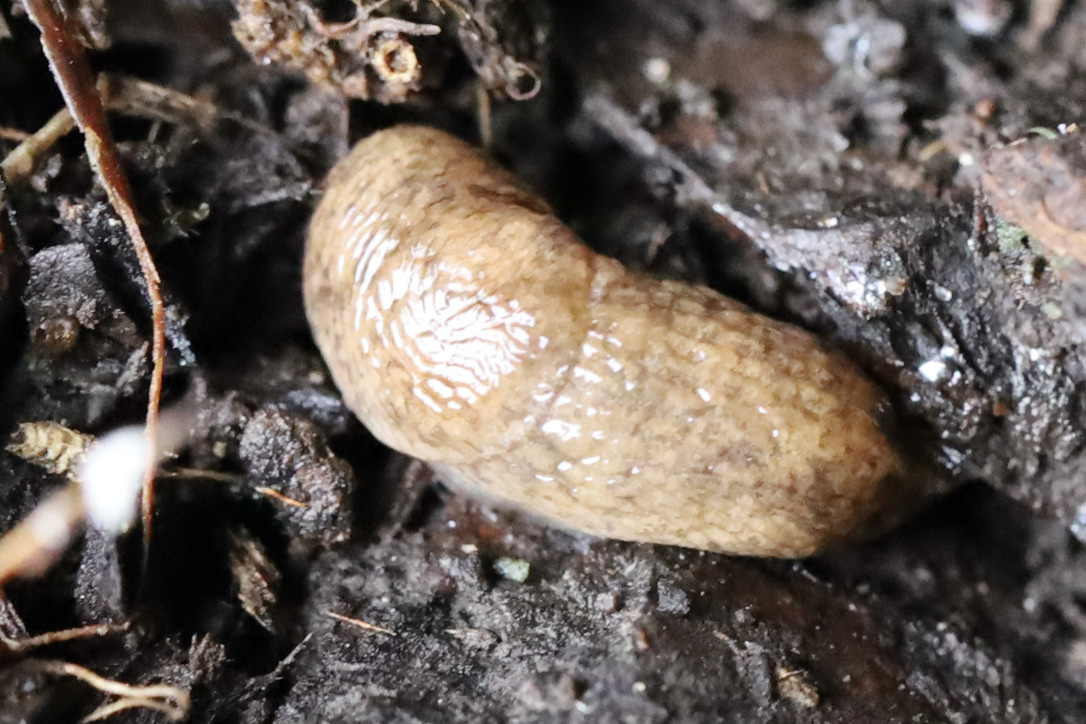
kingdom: Animalia
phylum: Mollusca
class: Gastropoda
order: Stylommatophora
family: Agriolimacidae
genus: Deroceras
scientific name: Deroceras reticulatum
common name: Gray field slug
